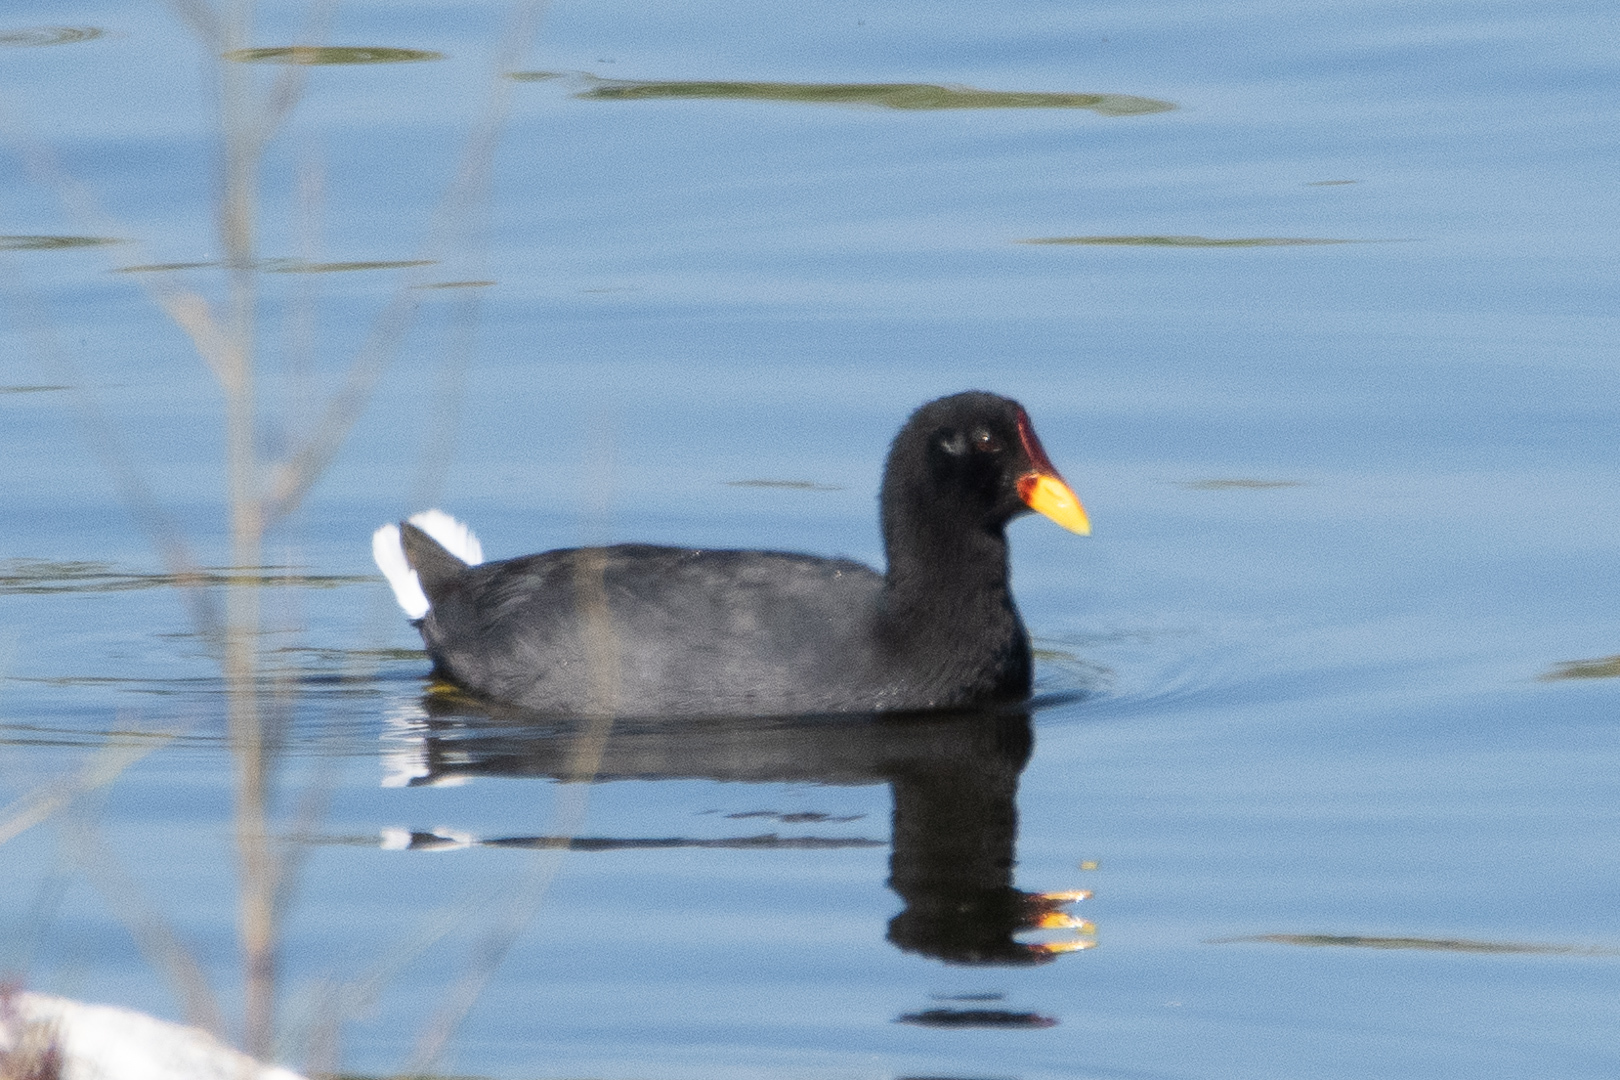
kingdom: Animalia
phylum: Chordata
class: Aves
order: Gruiformes
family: Rallidae
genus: Fulica
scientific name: Fulica rufifrons
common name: Red-fronted coot
